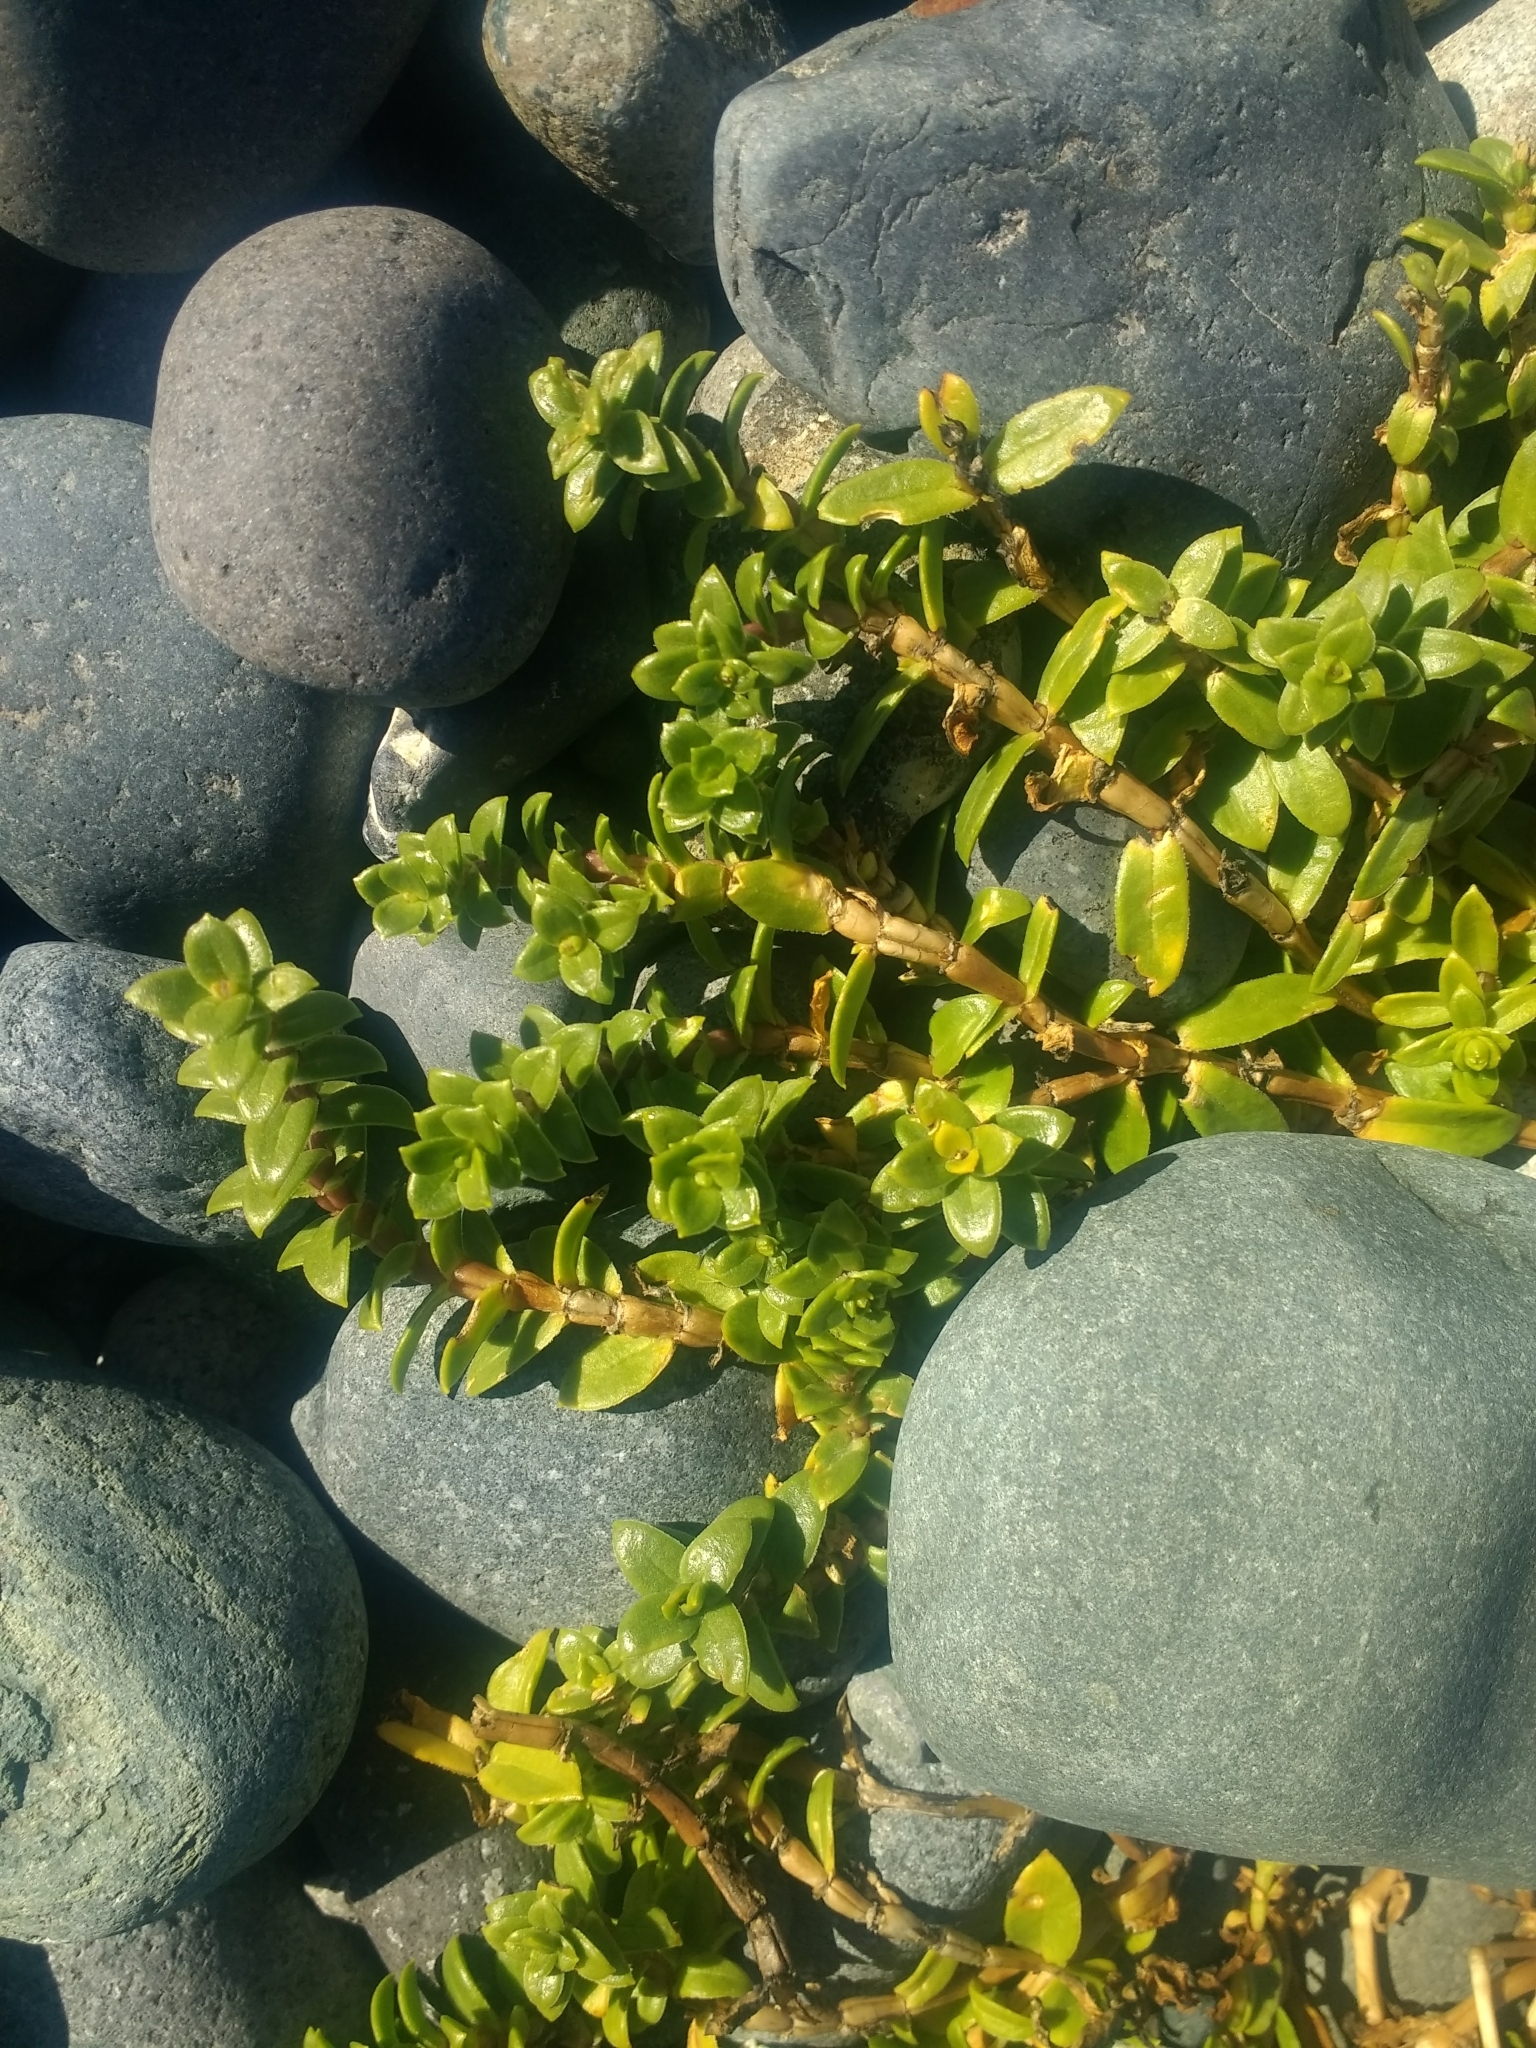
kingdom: Plantae
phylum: Tracheophyta
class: Magnoliopsida
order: Caryophyllales
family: Caryophyllaceae
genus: Honckenya
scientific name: Honckenya peploides
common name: Sea sandwort
